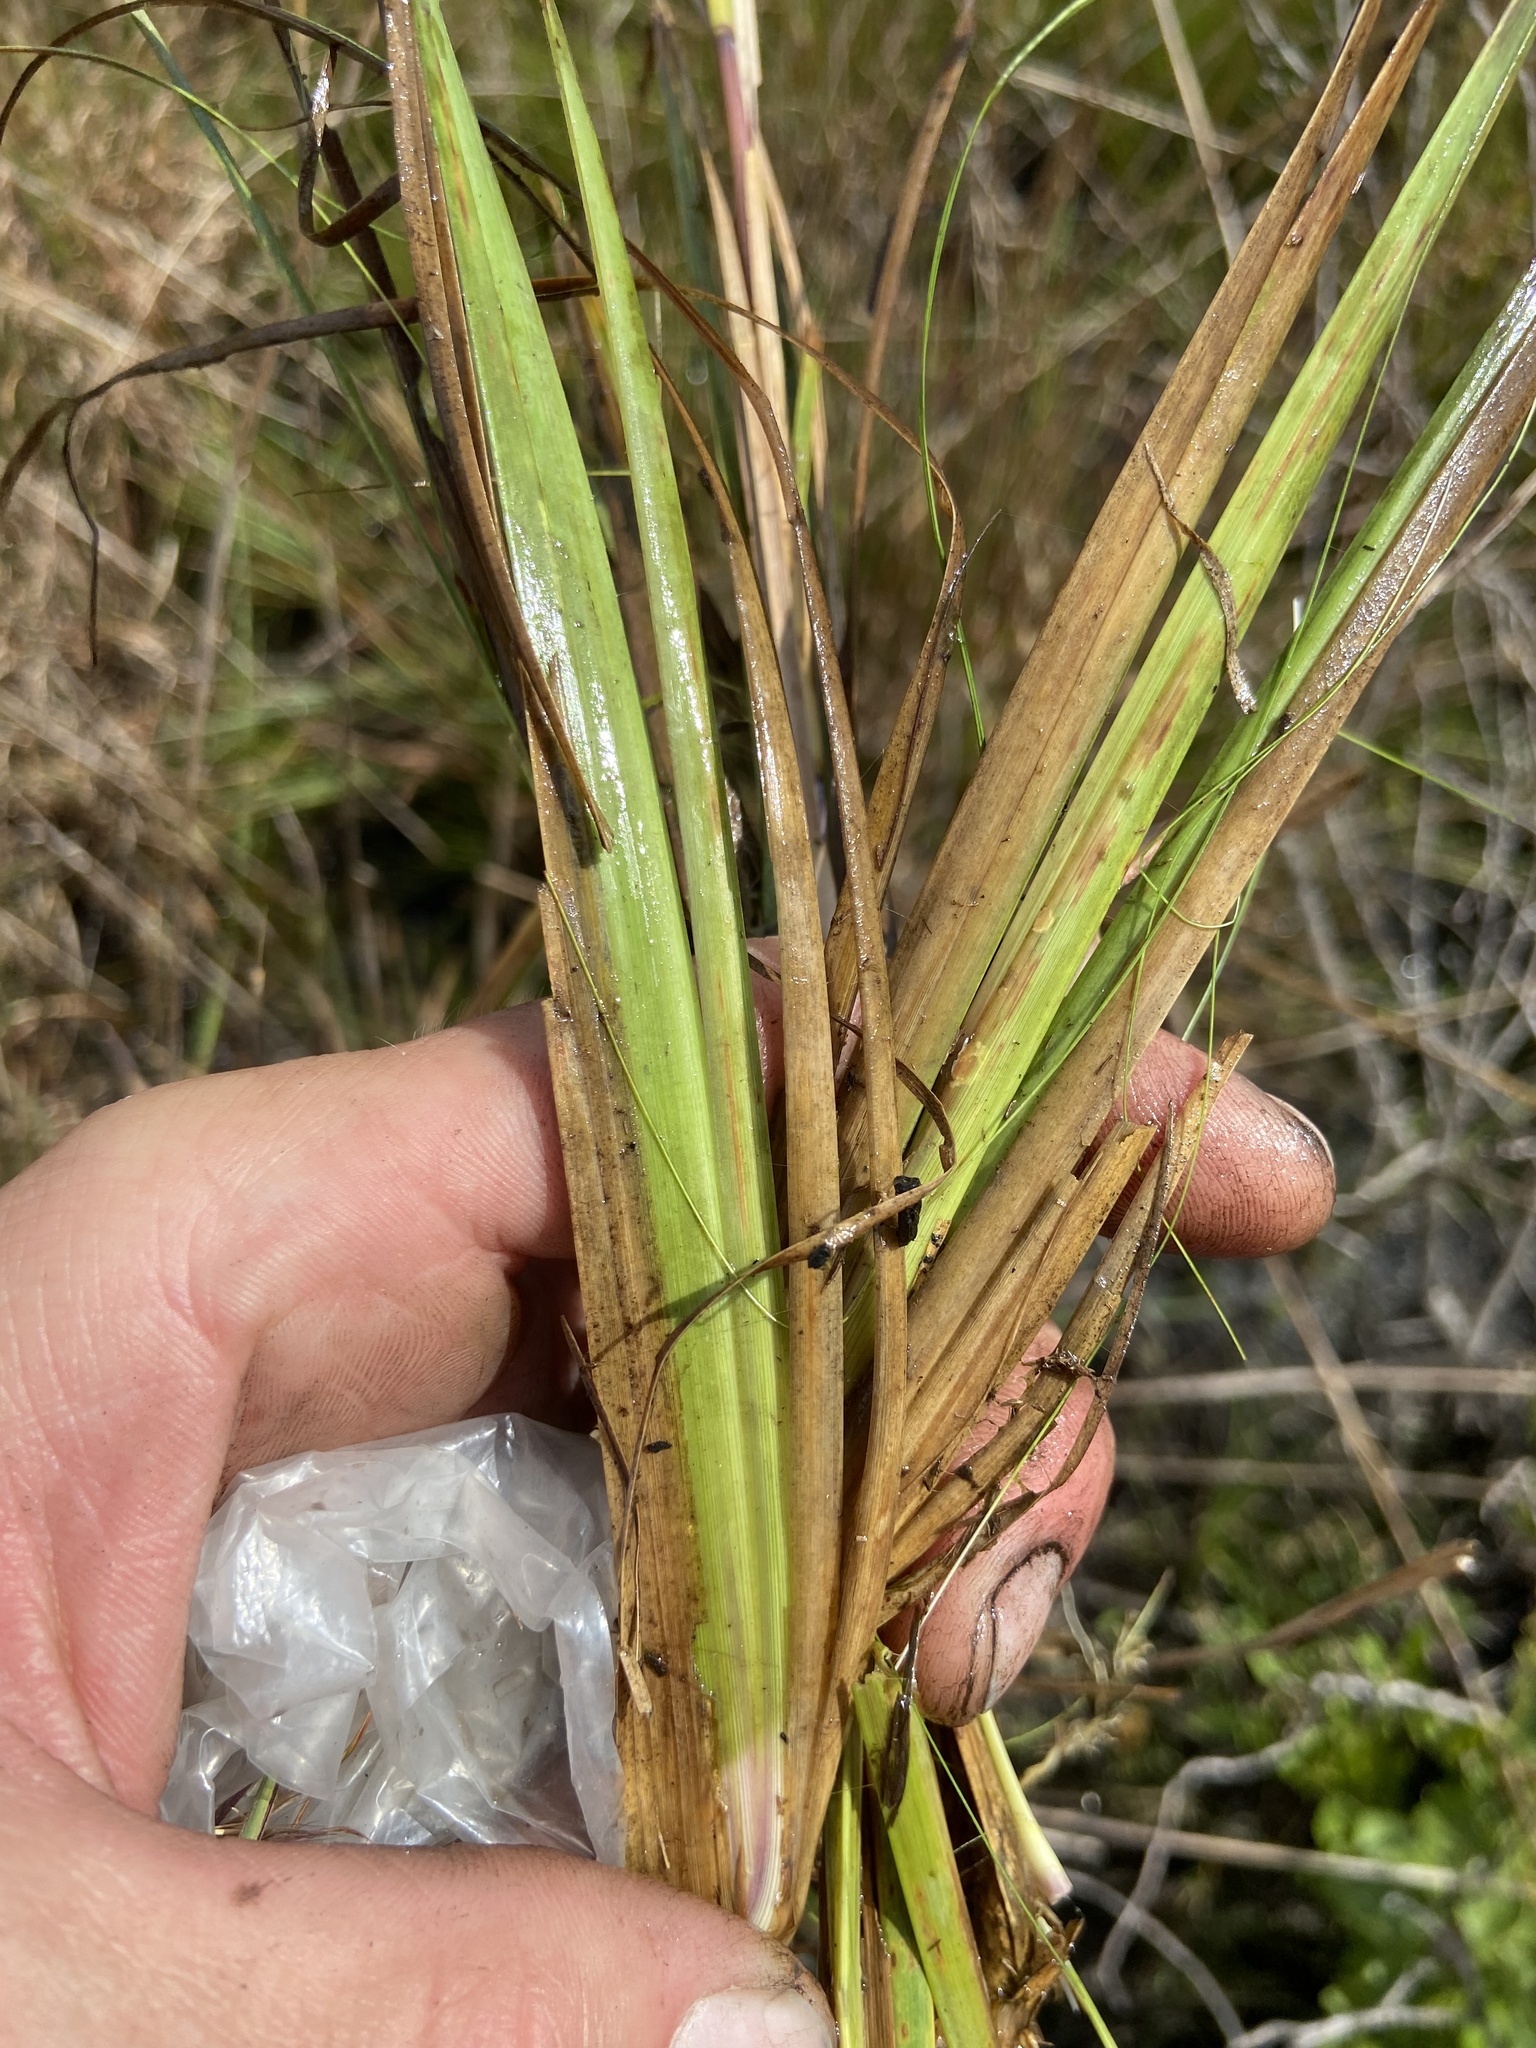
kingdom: Plantae
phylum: Tracheophyta
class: Liliopsida
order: Poales
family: Poaceae
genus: Andropogon
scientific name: Andropogon virginicus
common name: Broomsedge bluestem
